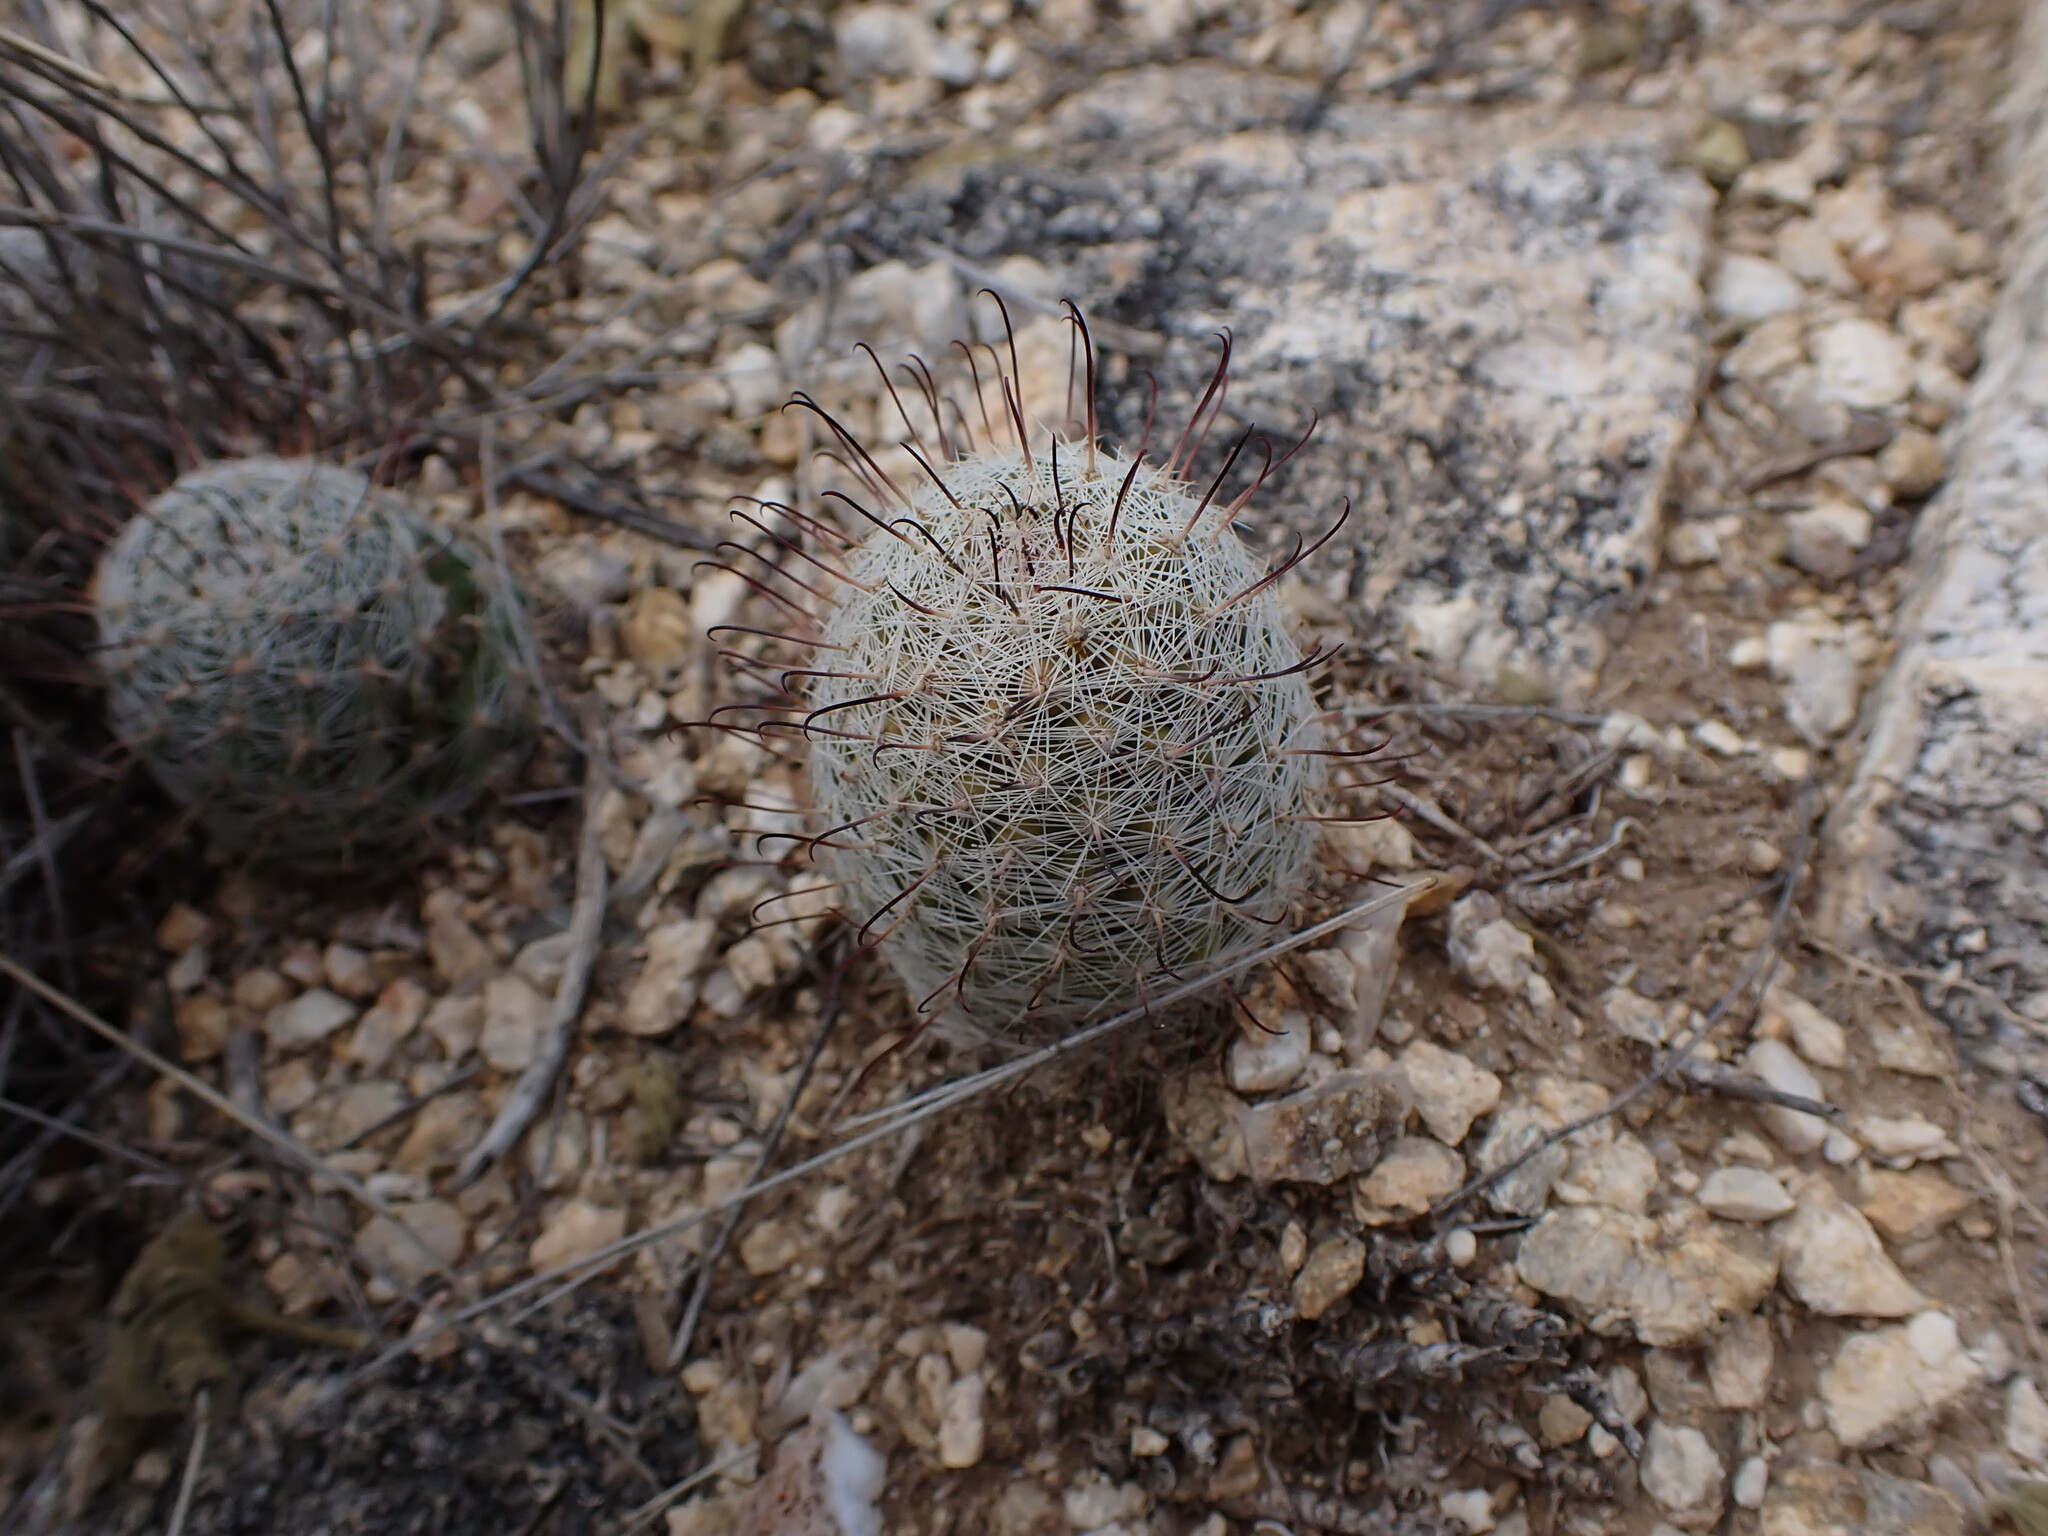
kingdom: Plantae
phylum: Tracheophyta
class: Magnoliopsida
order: Caryophyllales
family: Cactaceae
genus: Cochemiea
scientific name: Cochemiea grahamii
